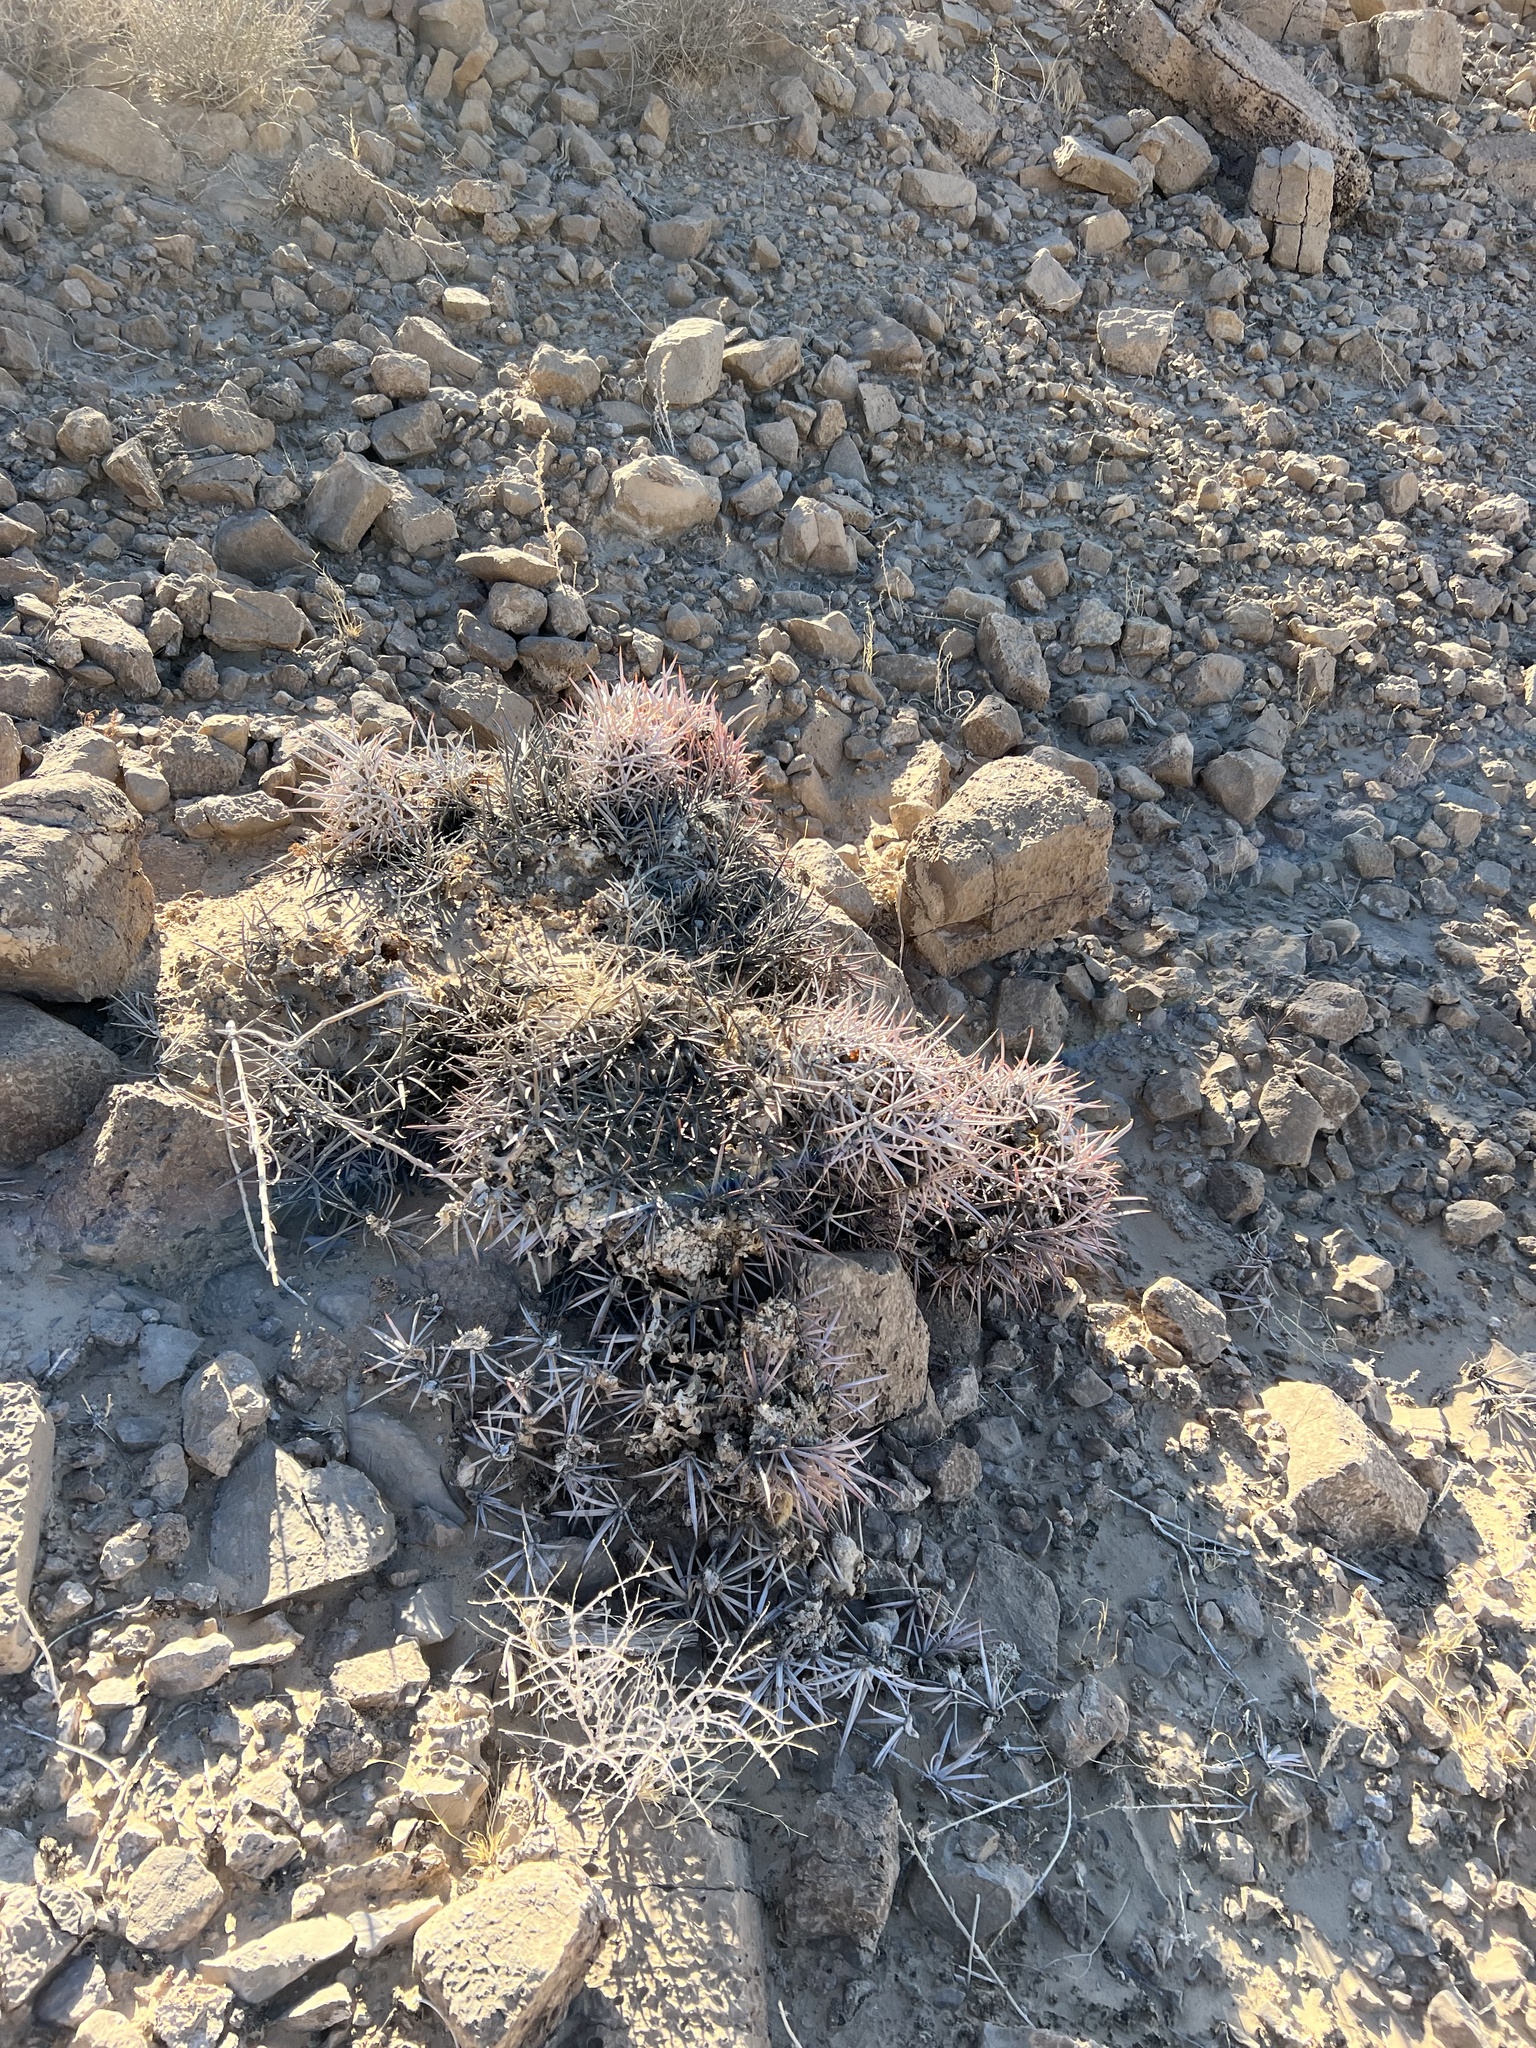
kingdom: Plantae
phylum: Tracheophyta
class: Magnoliopsida
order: Caryophyllales
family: Cactaceae
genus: Echinocactus
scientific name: Echinocactus polycephalus
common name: Cottontop cactus
